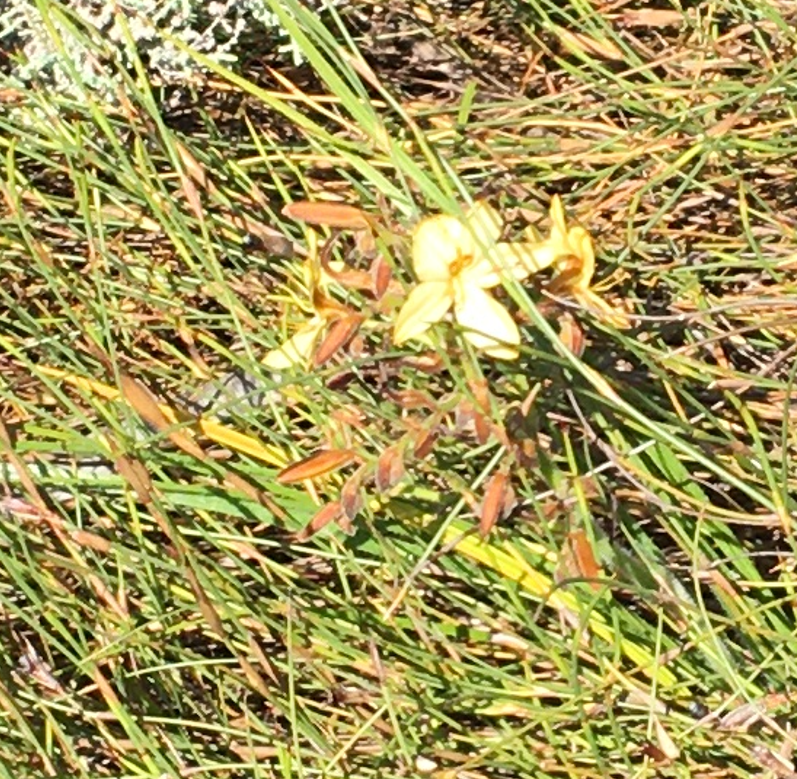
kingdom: Plantae
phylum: Tracheophyta
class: Liliopsida
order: Commelinales
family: Haemodoraceae
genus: Wachendorfia
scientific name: Wachendorfia paniculata
